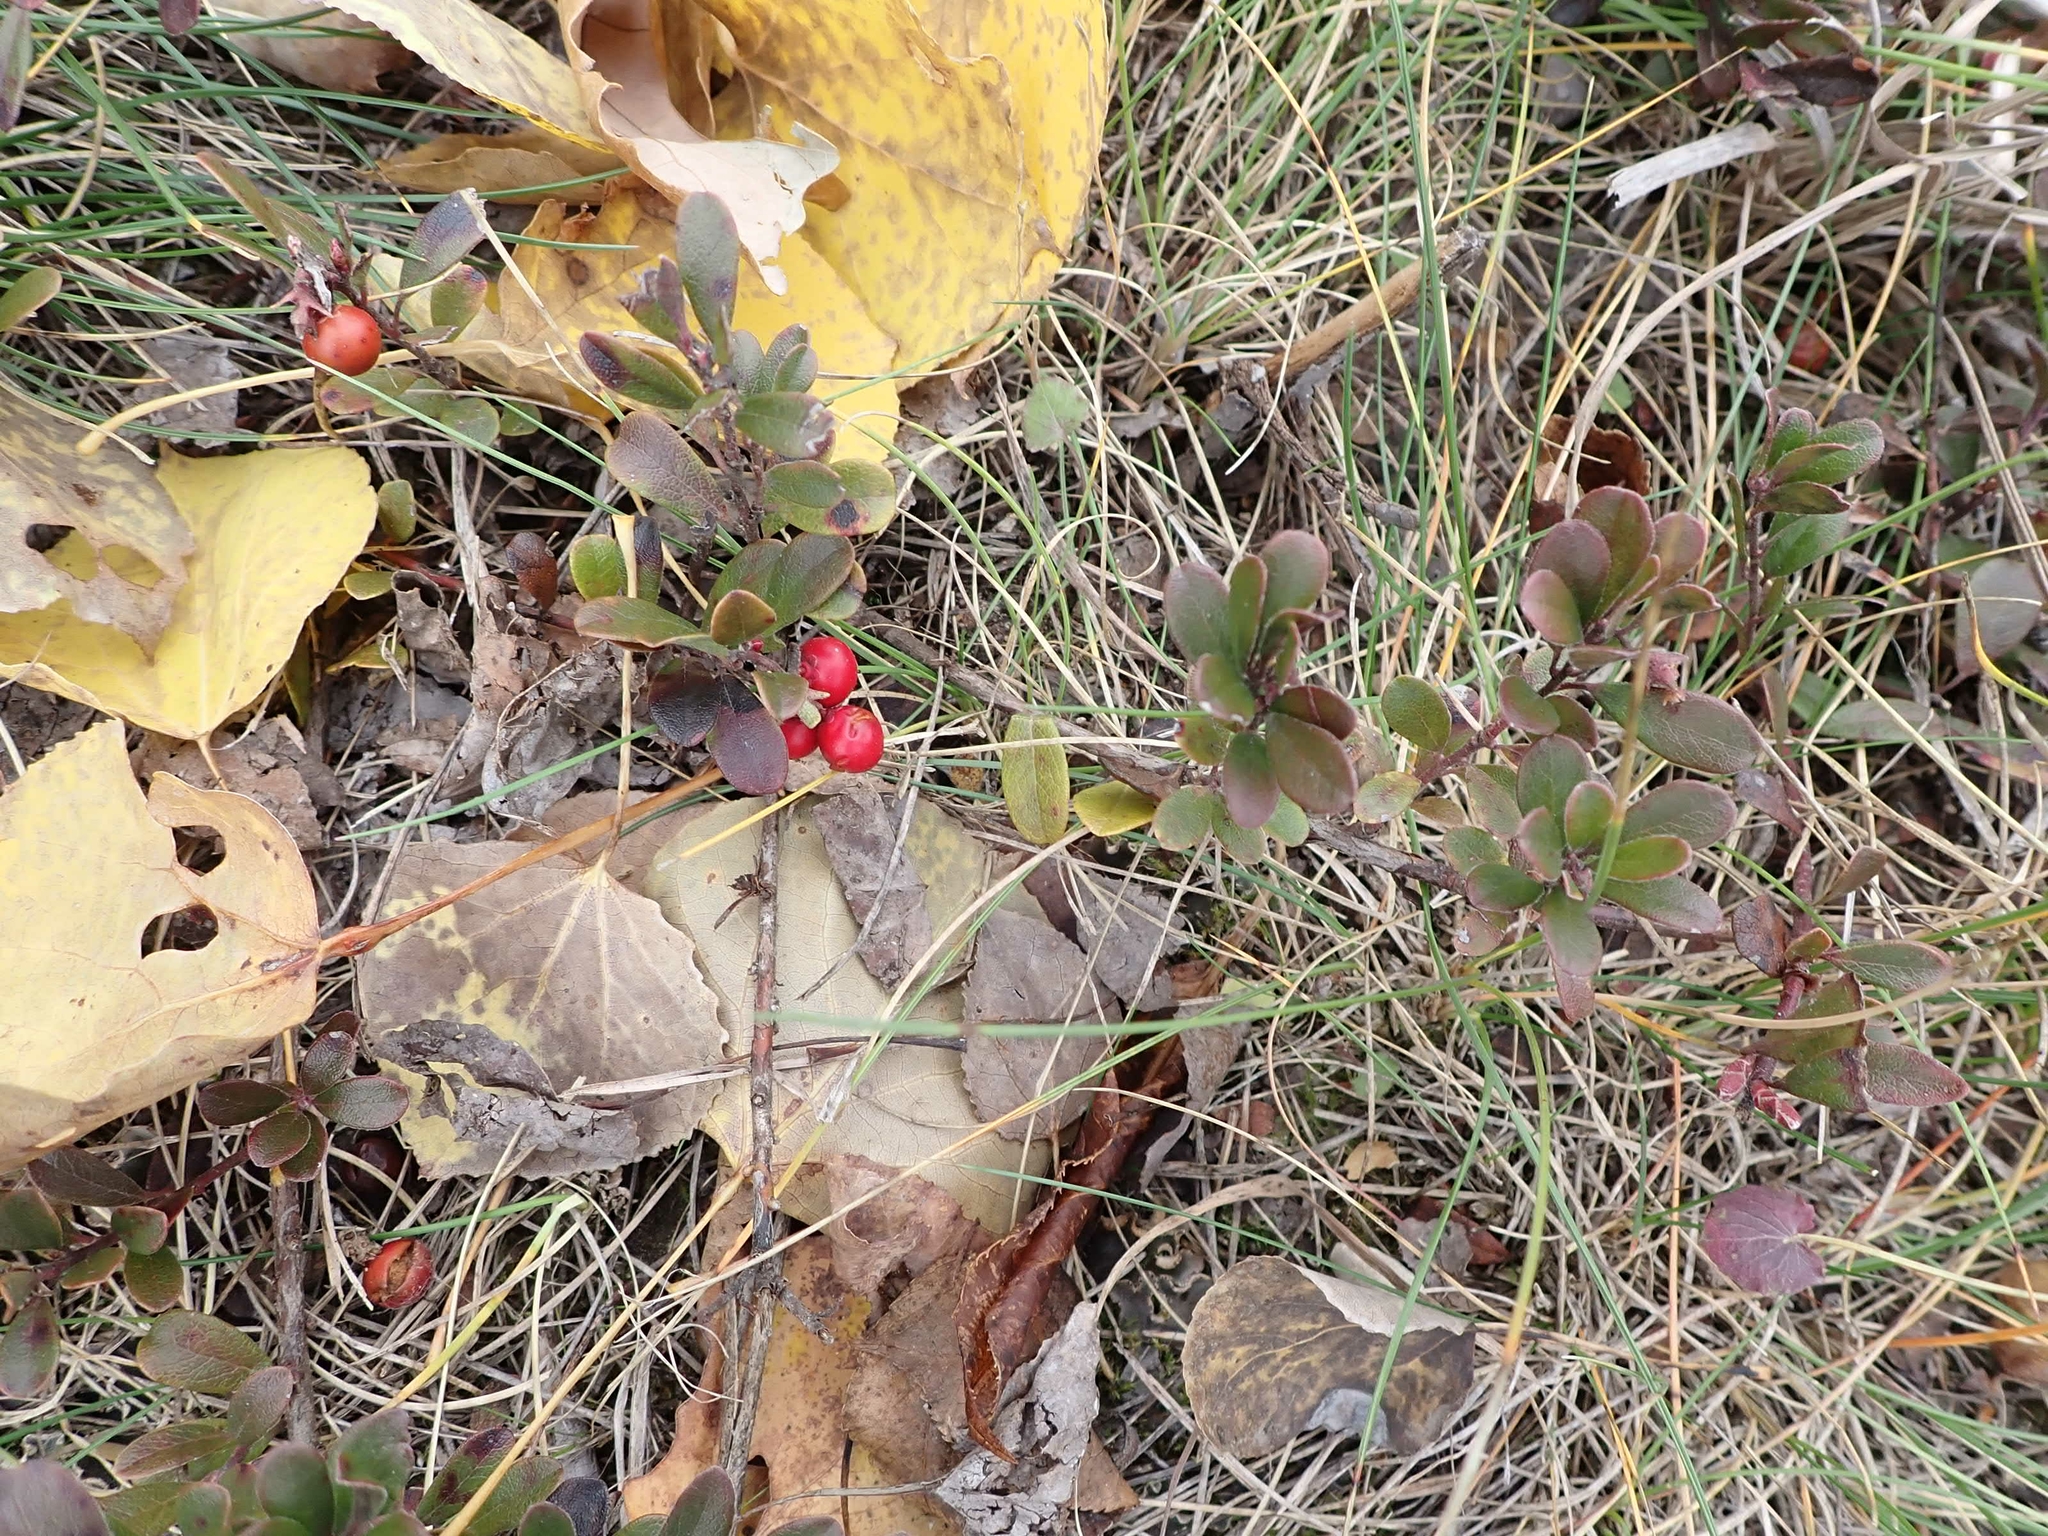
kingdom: Plantae
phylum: Tracheophyta
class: Magnoliopsida
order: Ericales
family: Ericaceae
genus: Arctostaphylos
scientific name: Arctostaphylos uva-ursi
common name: Bearberry
